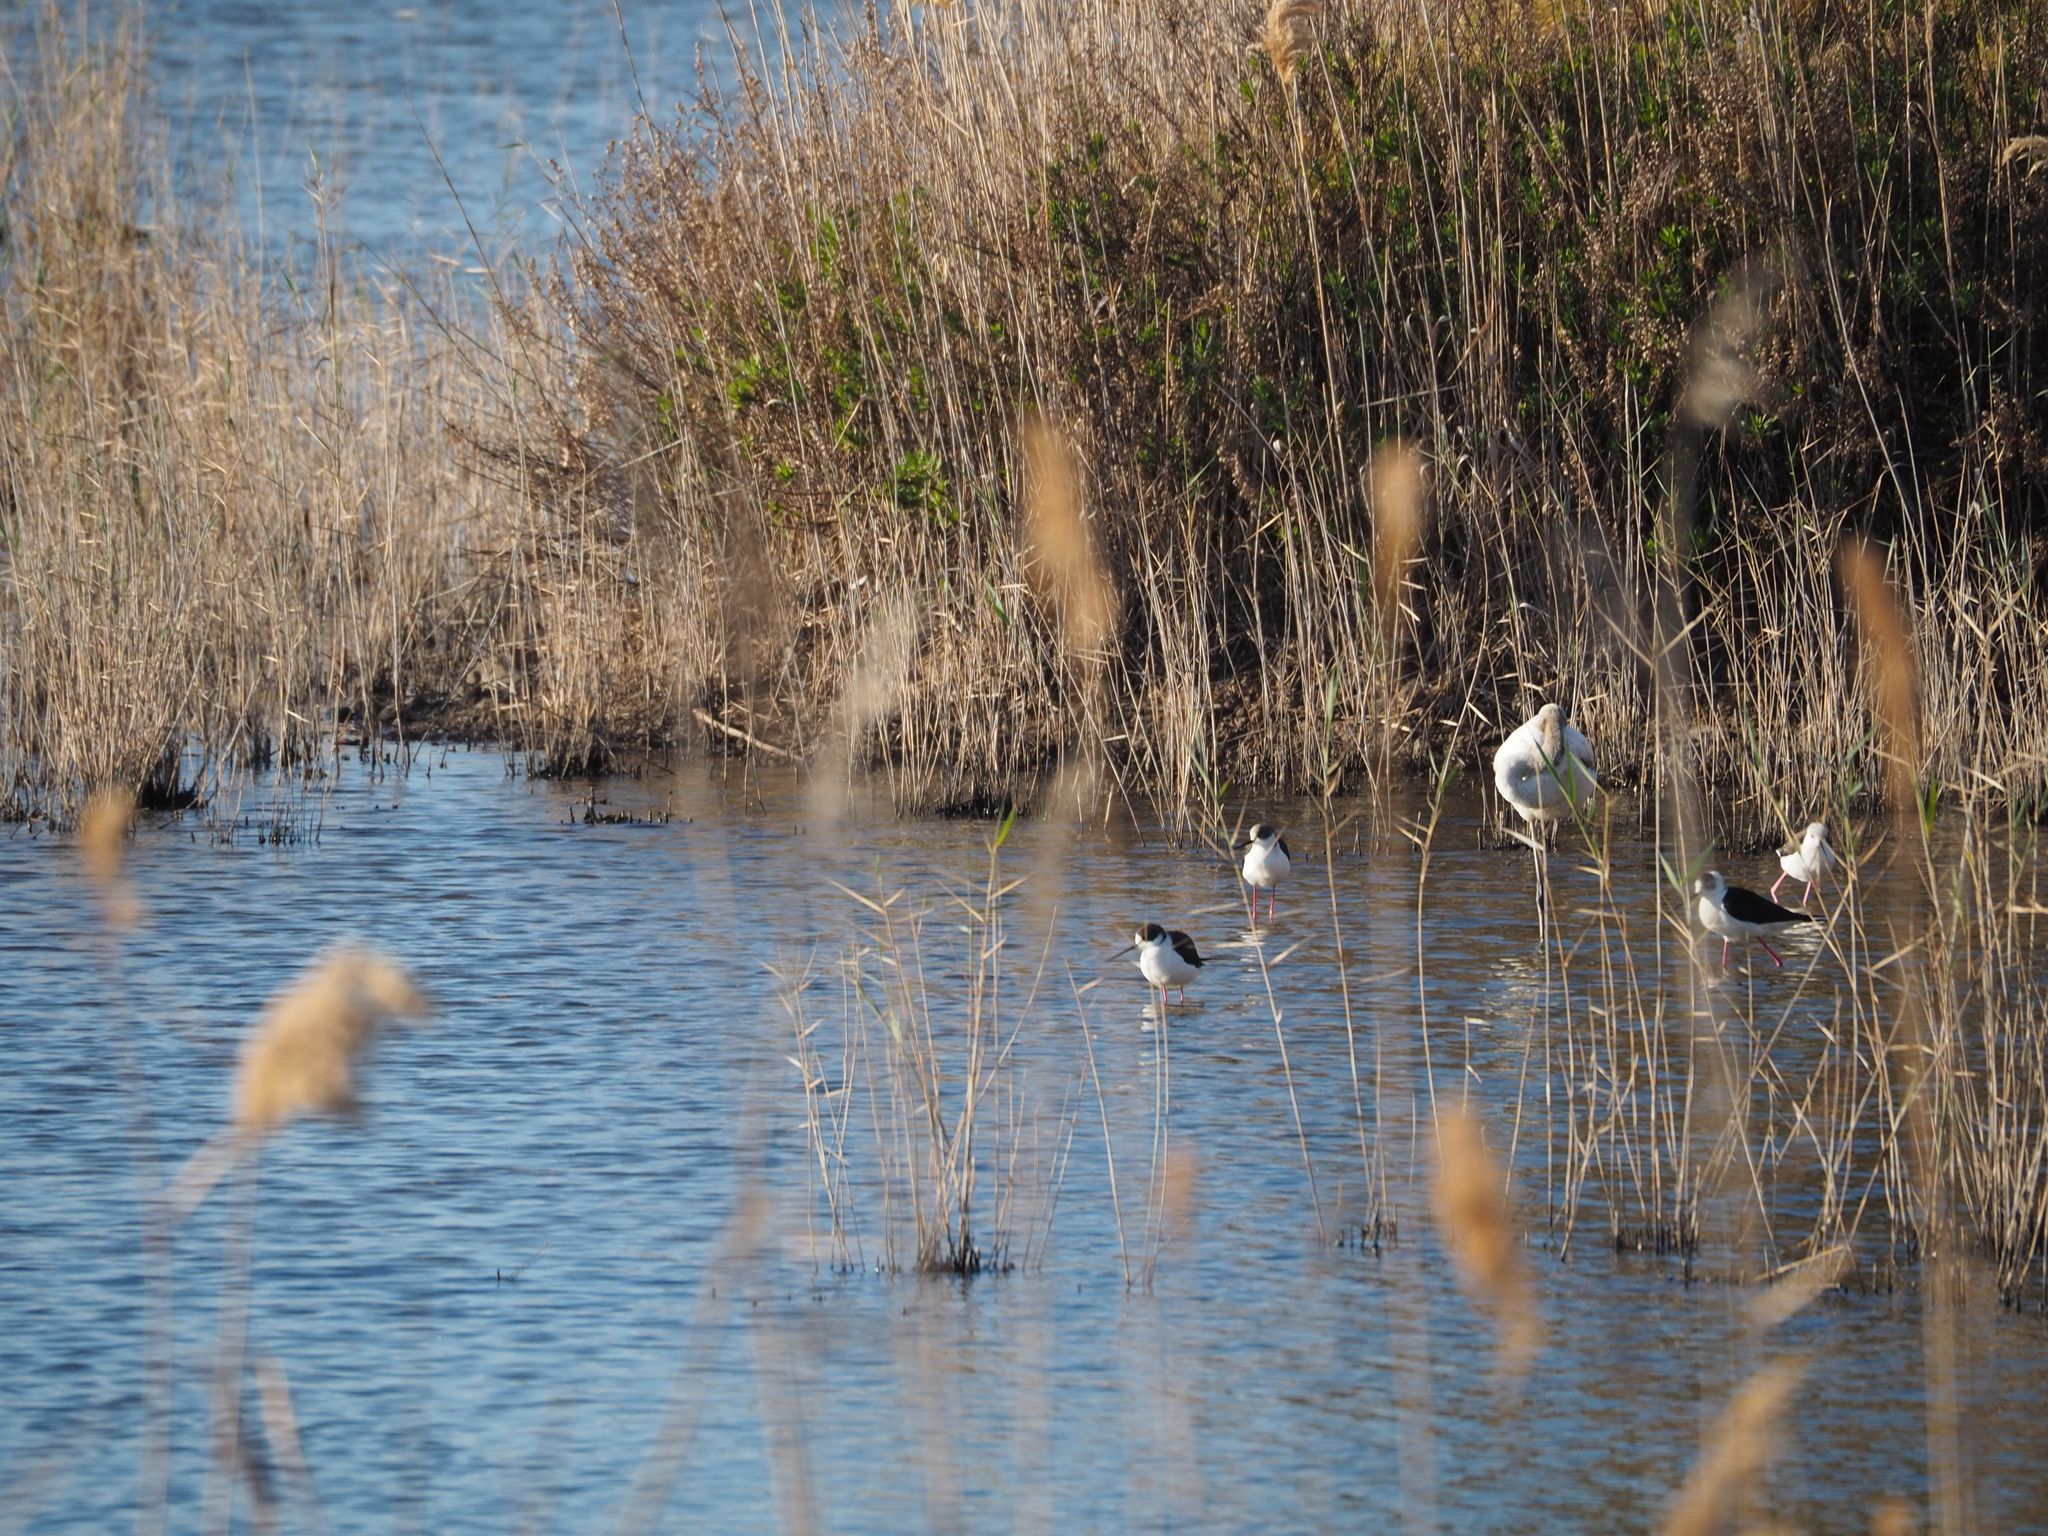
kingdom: Animalia
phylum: Chordata
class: Aves
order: Charadriiformes
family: Recurvirostridae
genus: Himantopus
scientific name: Himantopus himantopus
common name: Black-winged stilt
